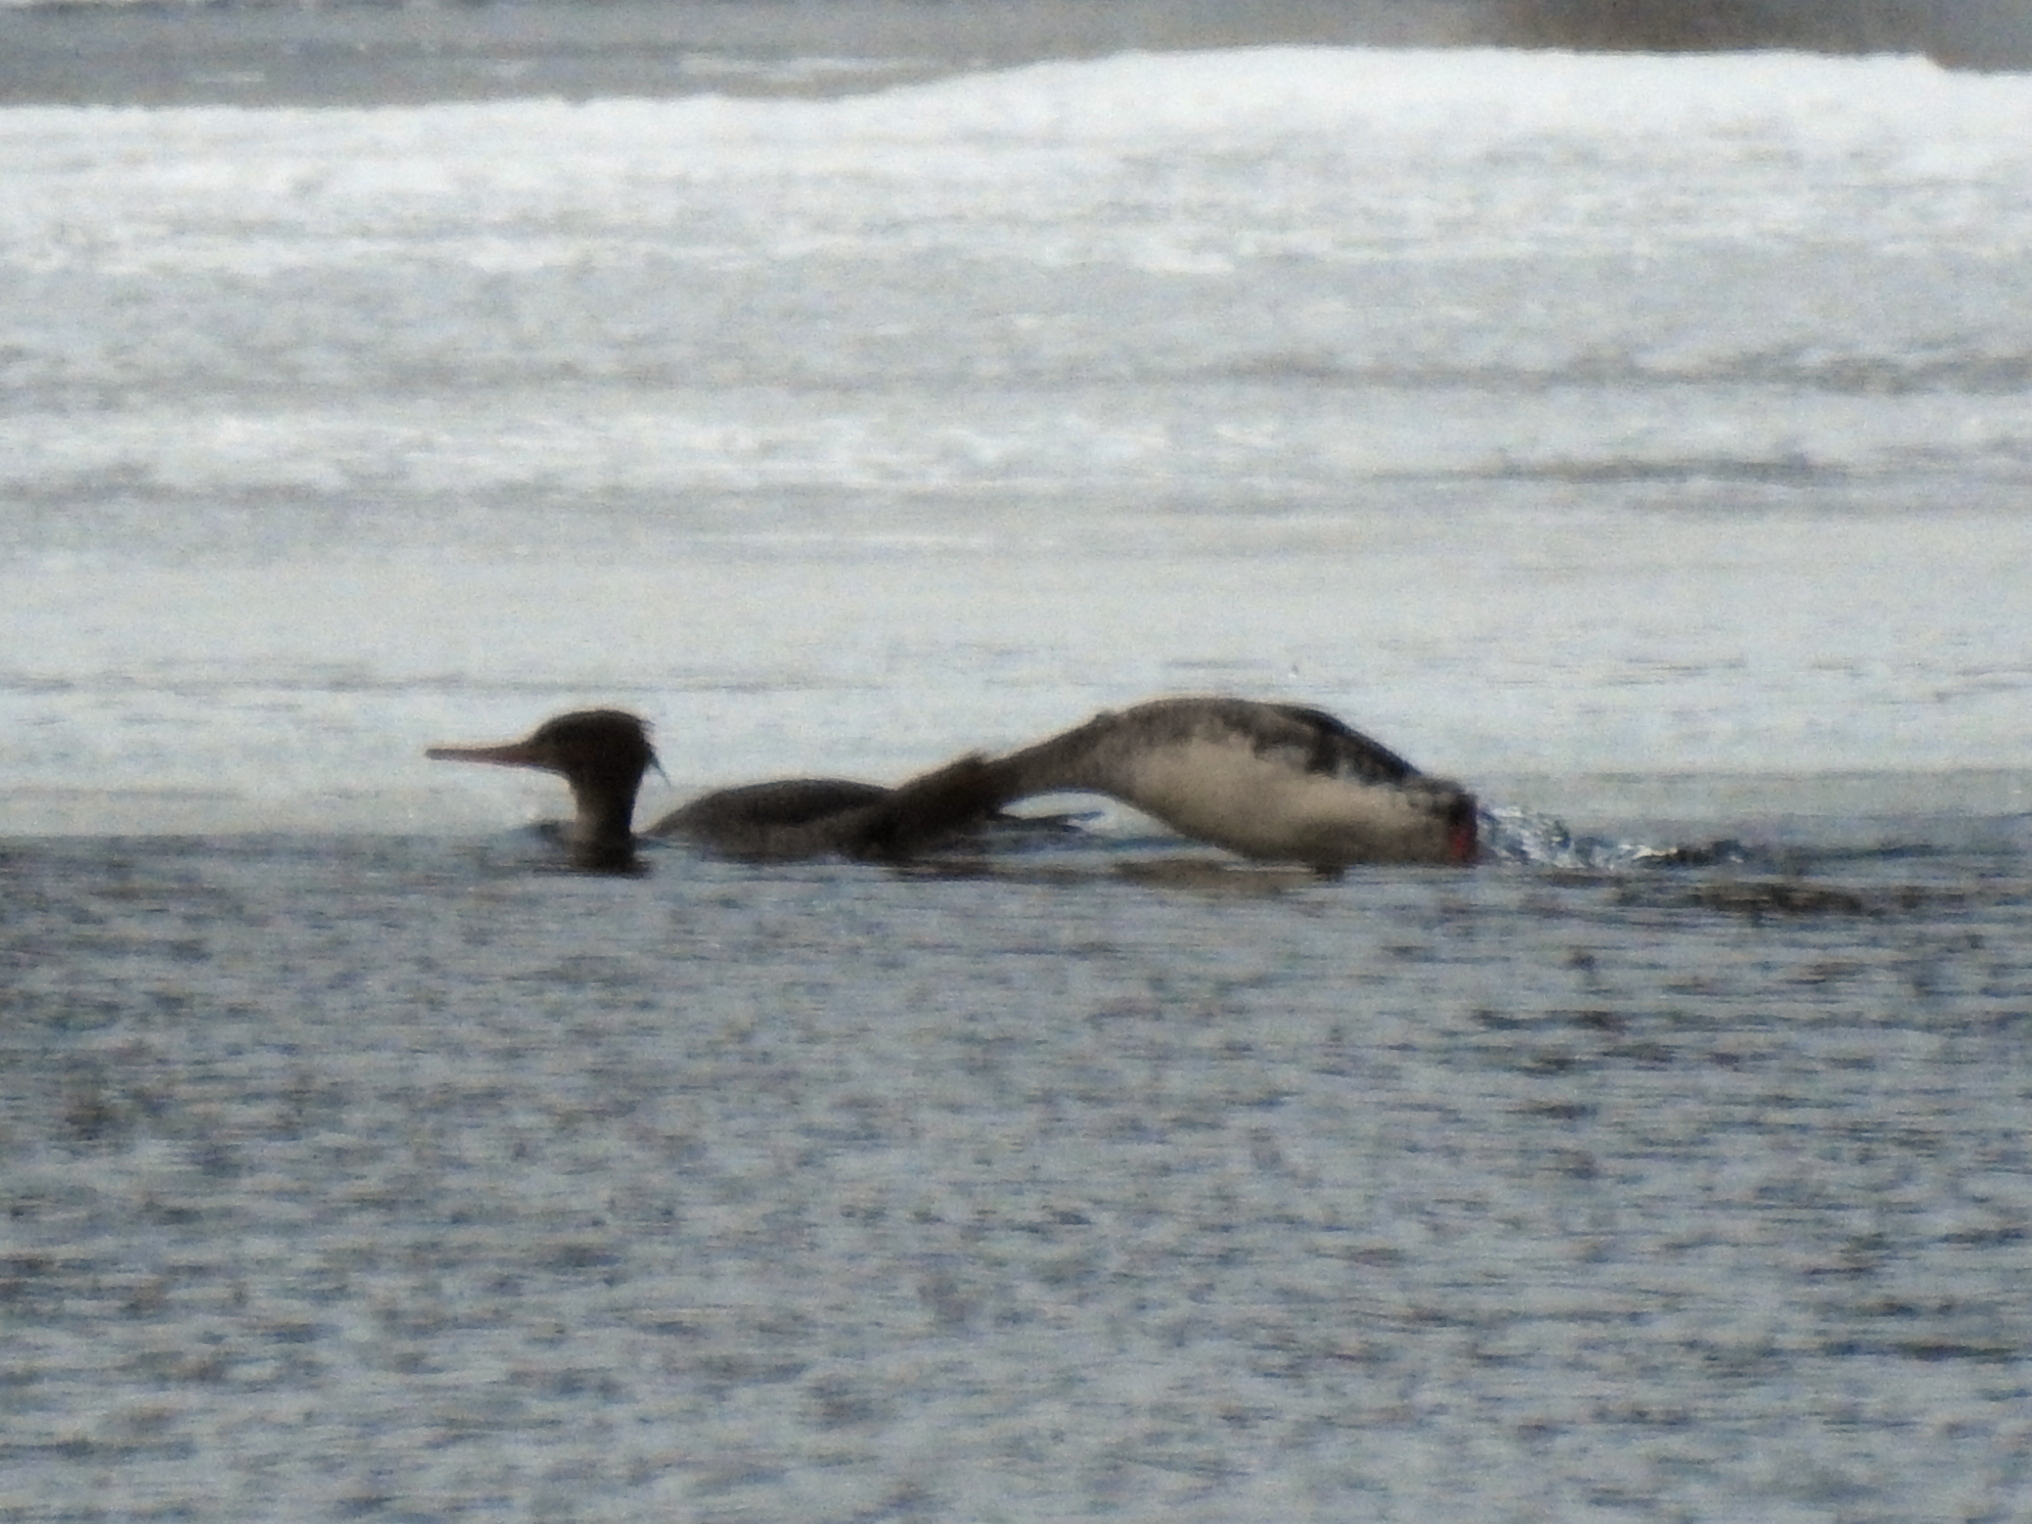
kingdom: Animalia
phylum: Chordata
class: Aves
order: Anseriformes
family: Anatidae
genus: Mergus
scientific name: Mergus serrator
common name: Red-breasted merganser
